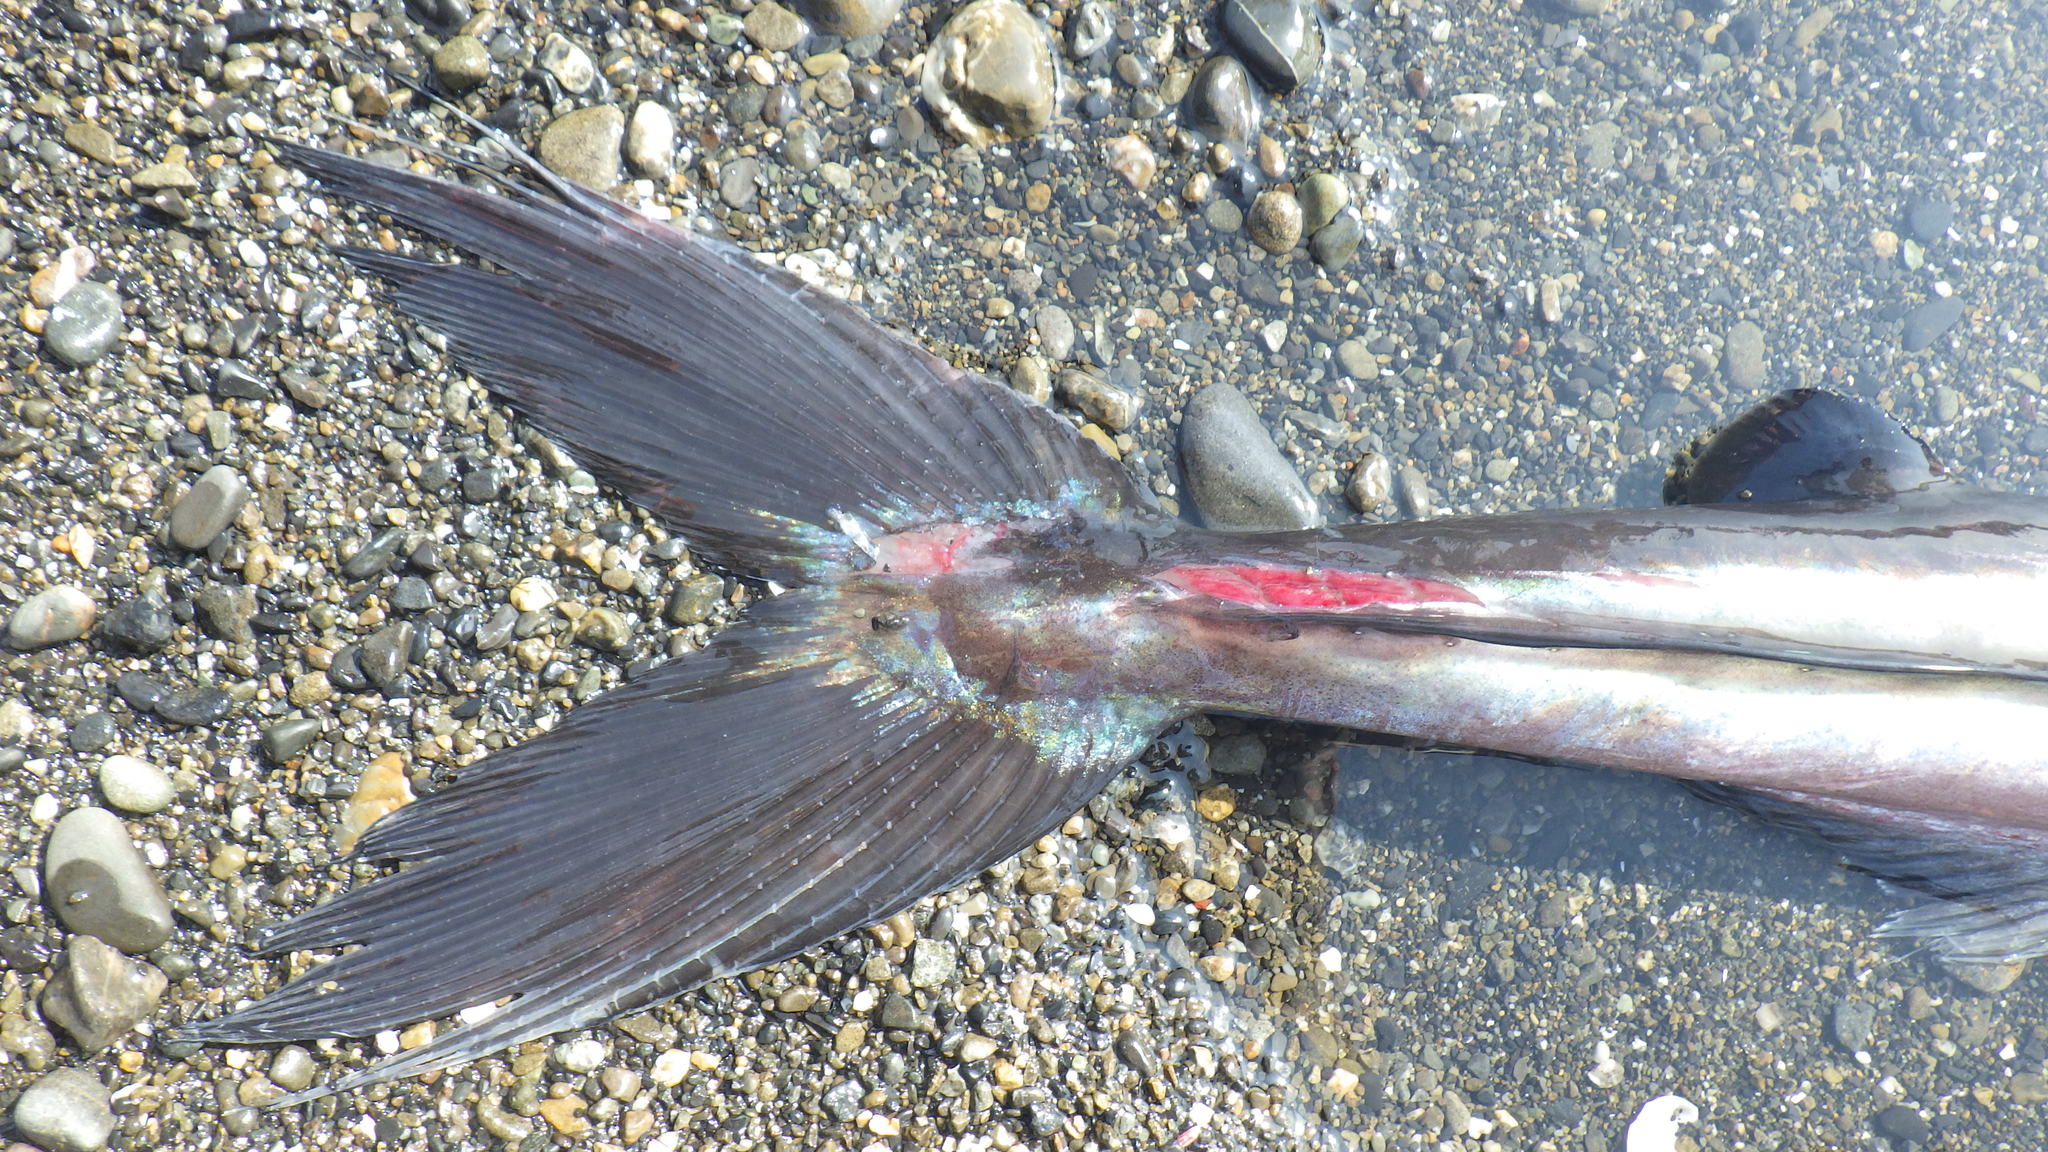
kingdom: Animalia
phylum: Chordata
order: Aulopiformes
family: Alepisauridae
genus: Alepisaurus
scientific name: Alepisaurus ferox
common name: Longnose lancetfish
